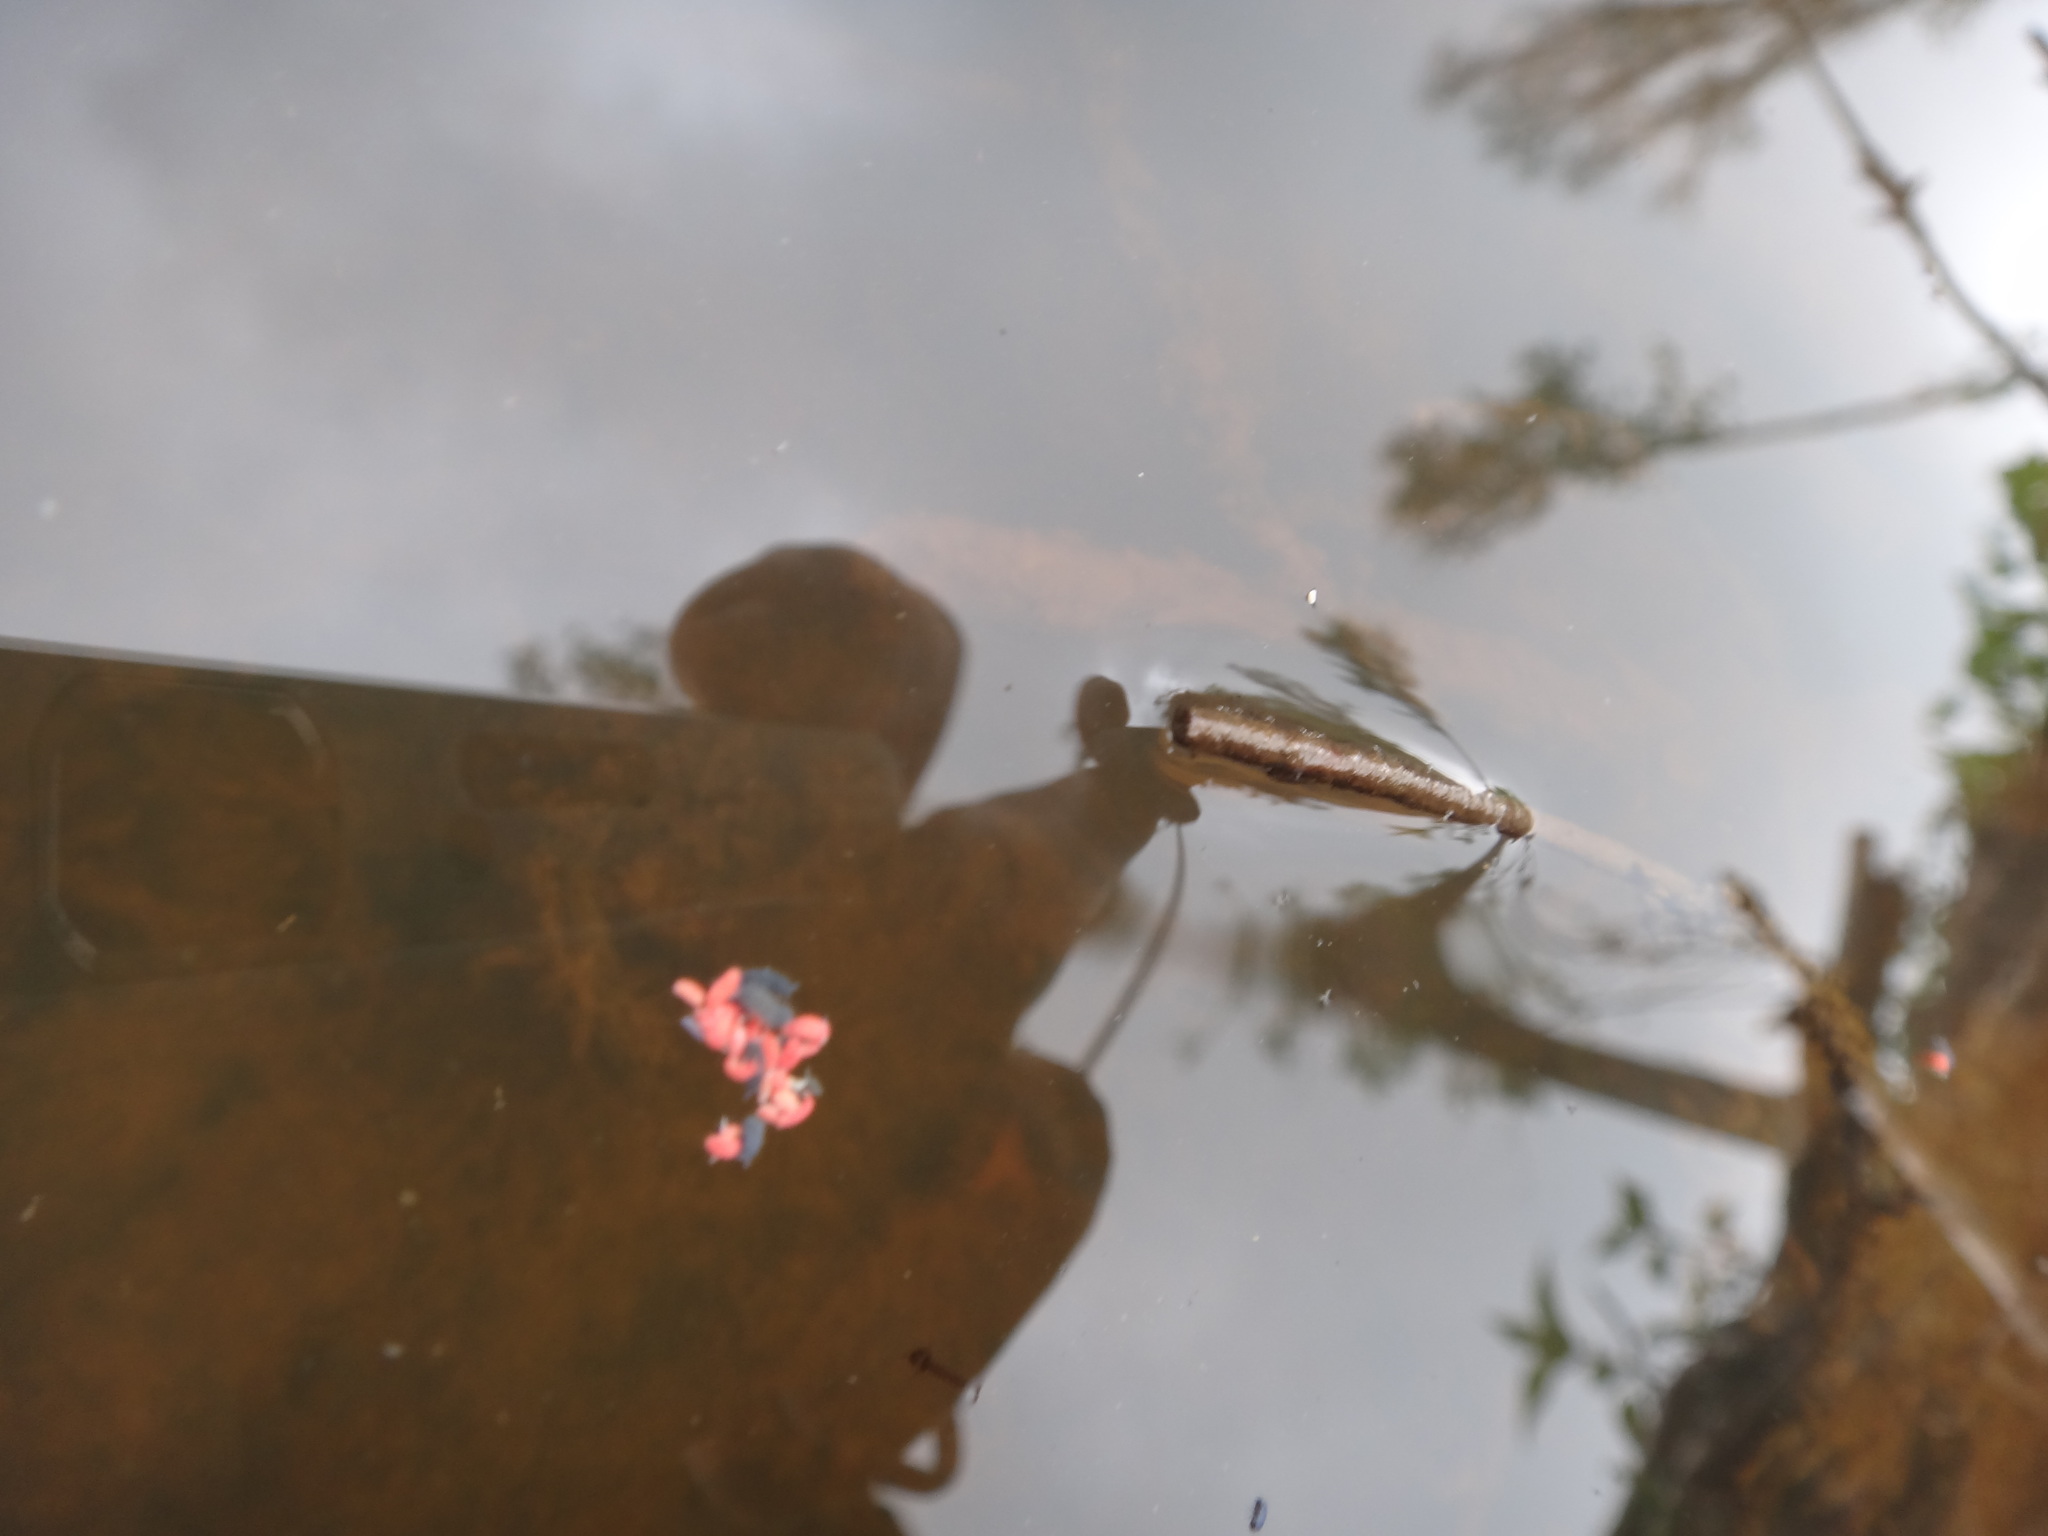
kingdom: Animalia
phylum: Arthropoda
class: Collembola
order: Poduromorpha
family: Neanuridae
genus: Bilobella
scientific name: Bilobella braunerae
